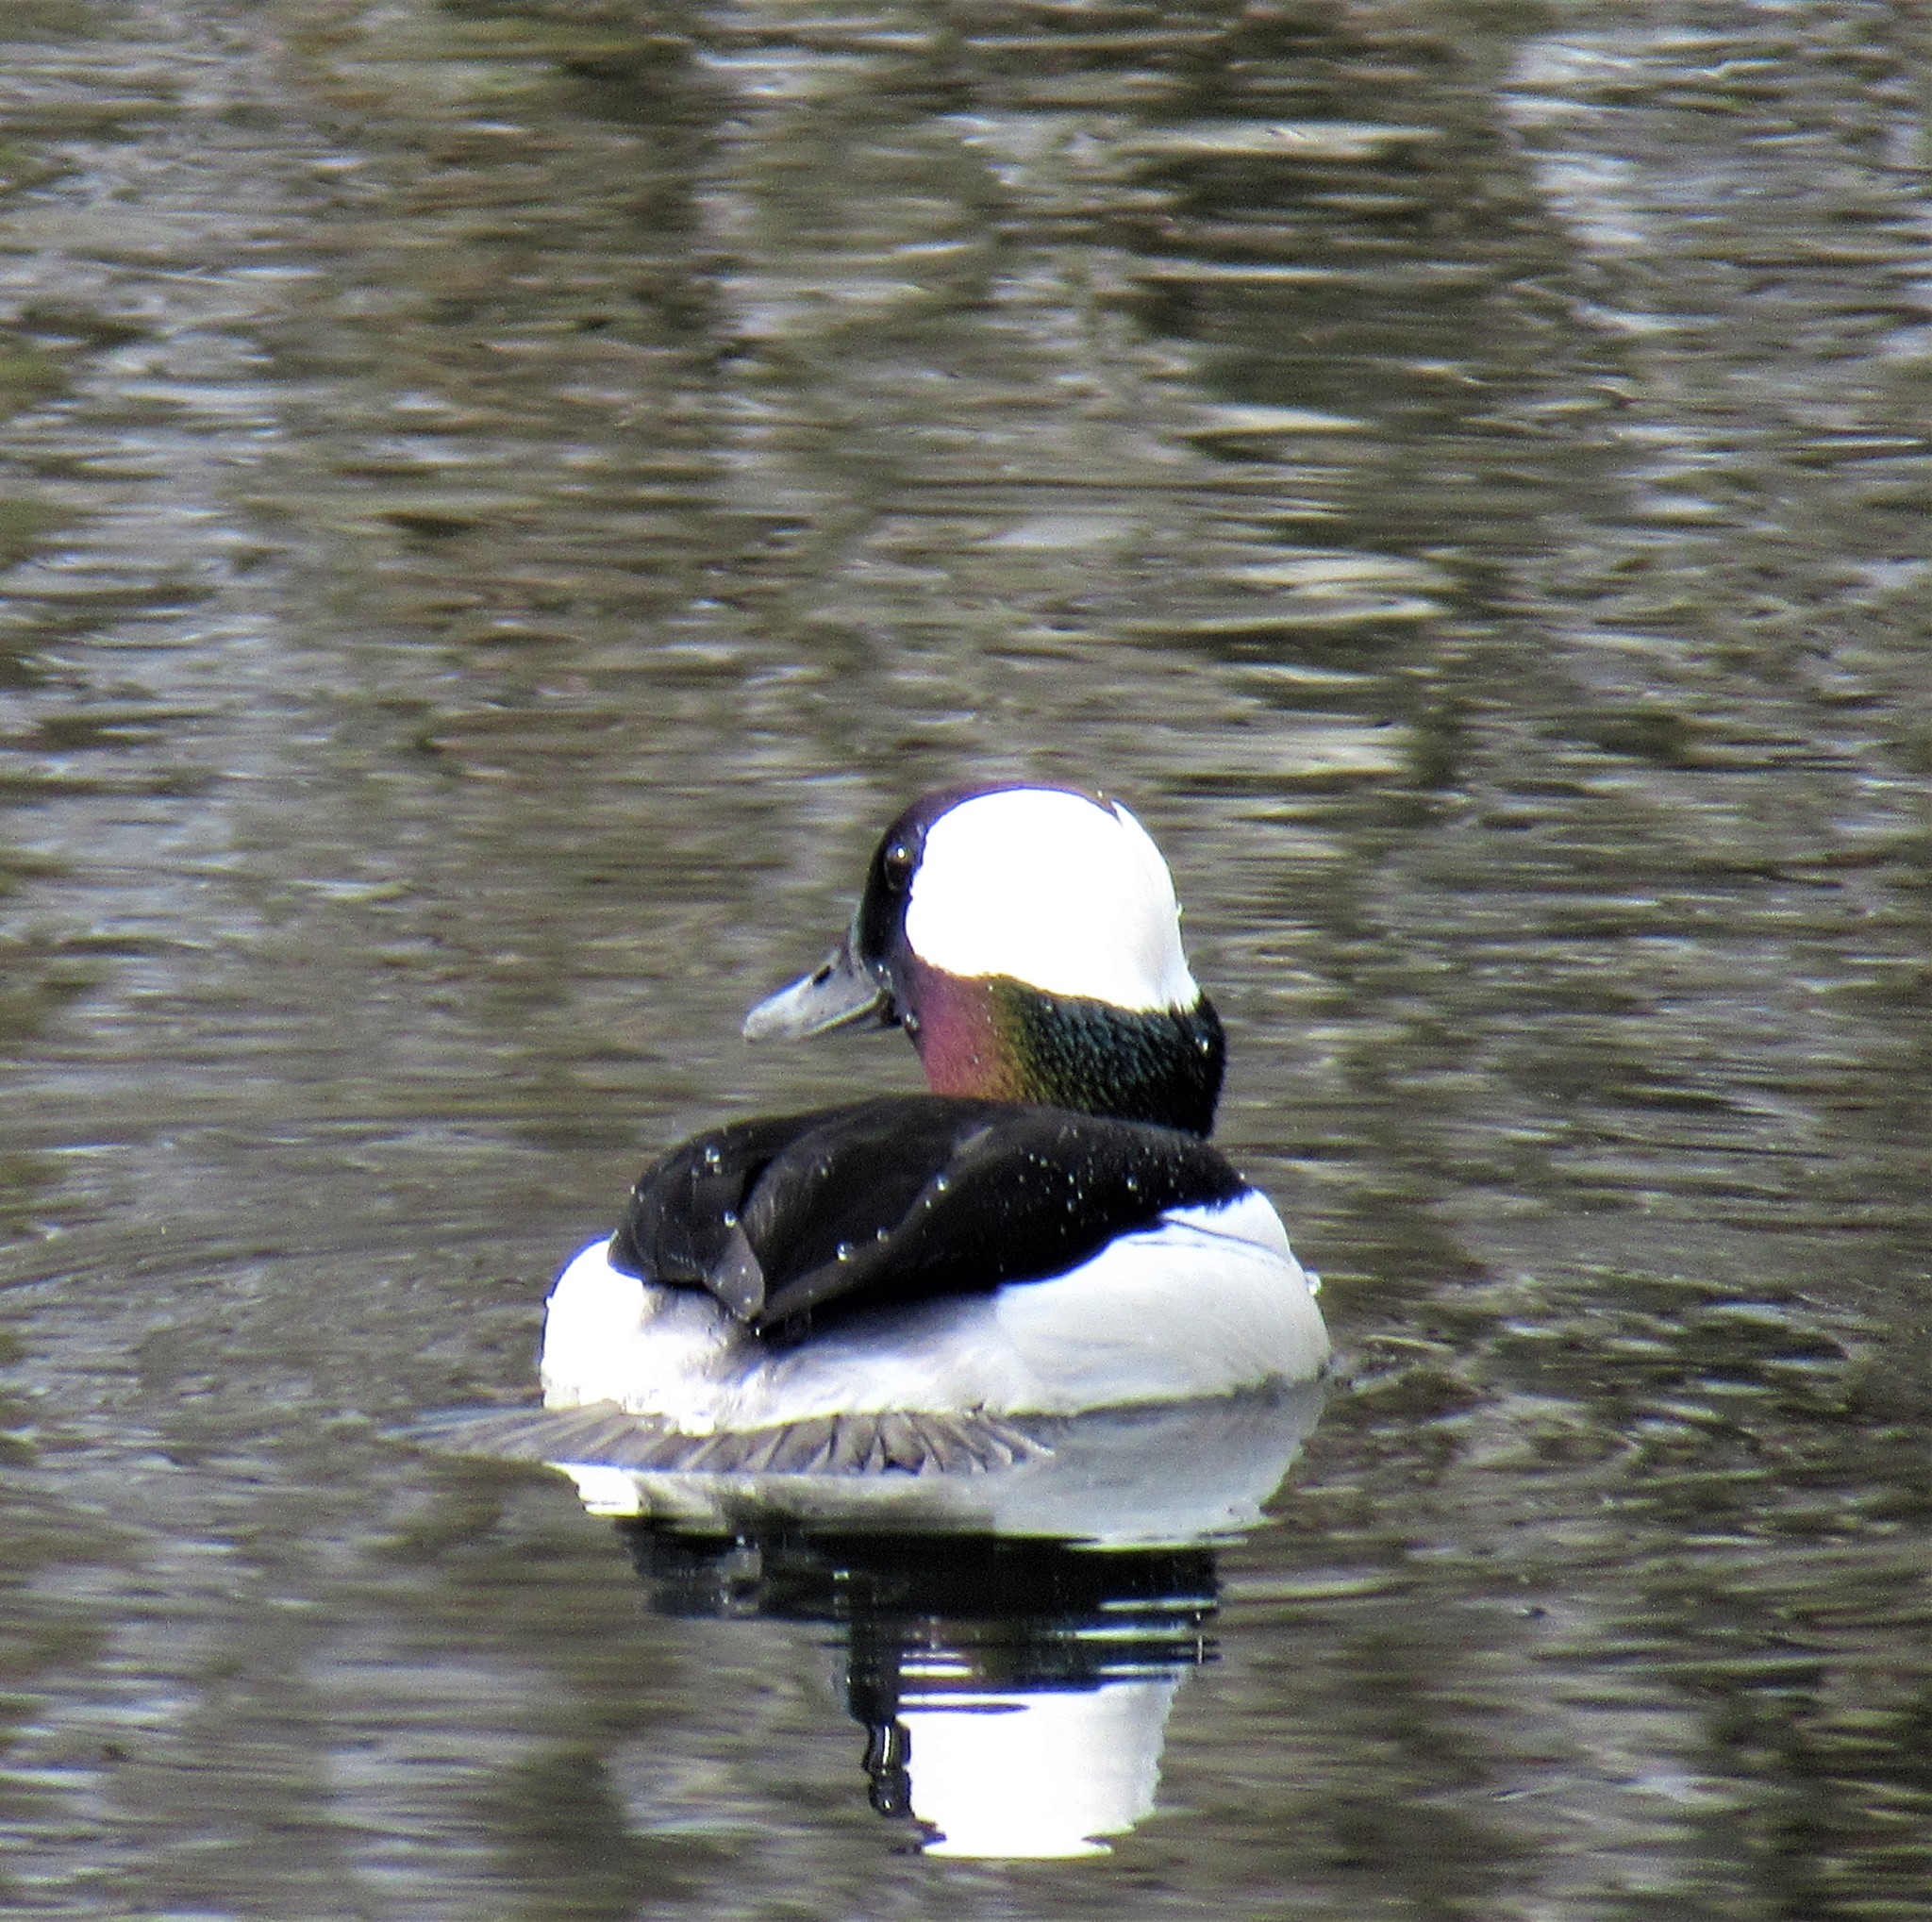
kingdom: Animalia
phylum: Chordata
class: Aves
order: Anseriformes
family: Anatidae
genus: Bucephala
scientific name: Bucephala albeola
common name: Bufflehead
